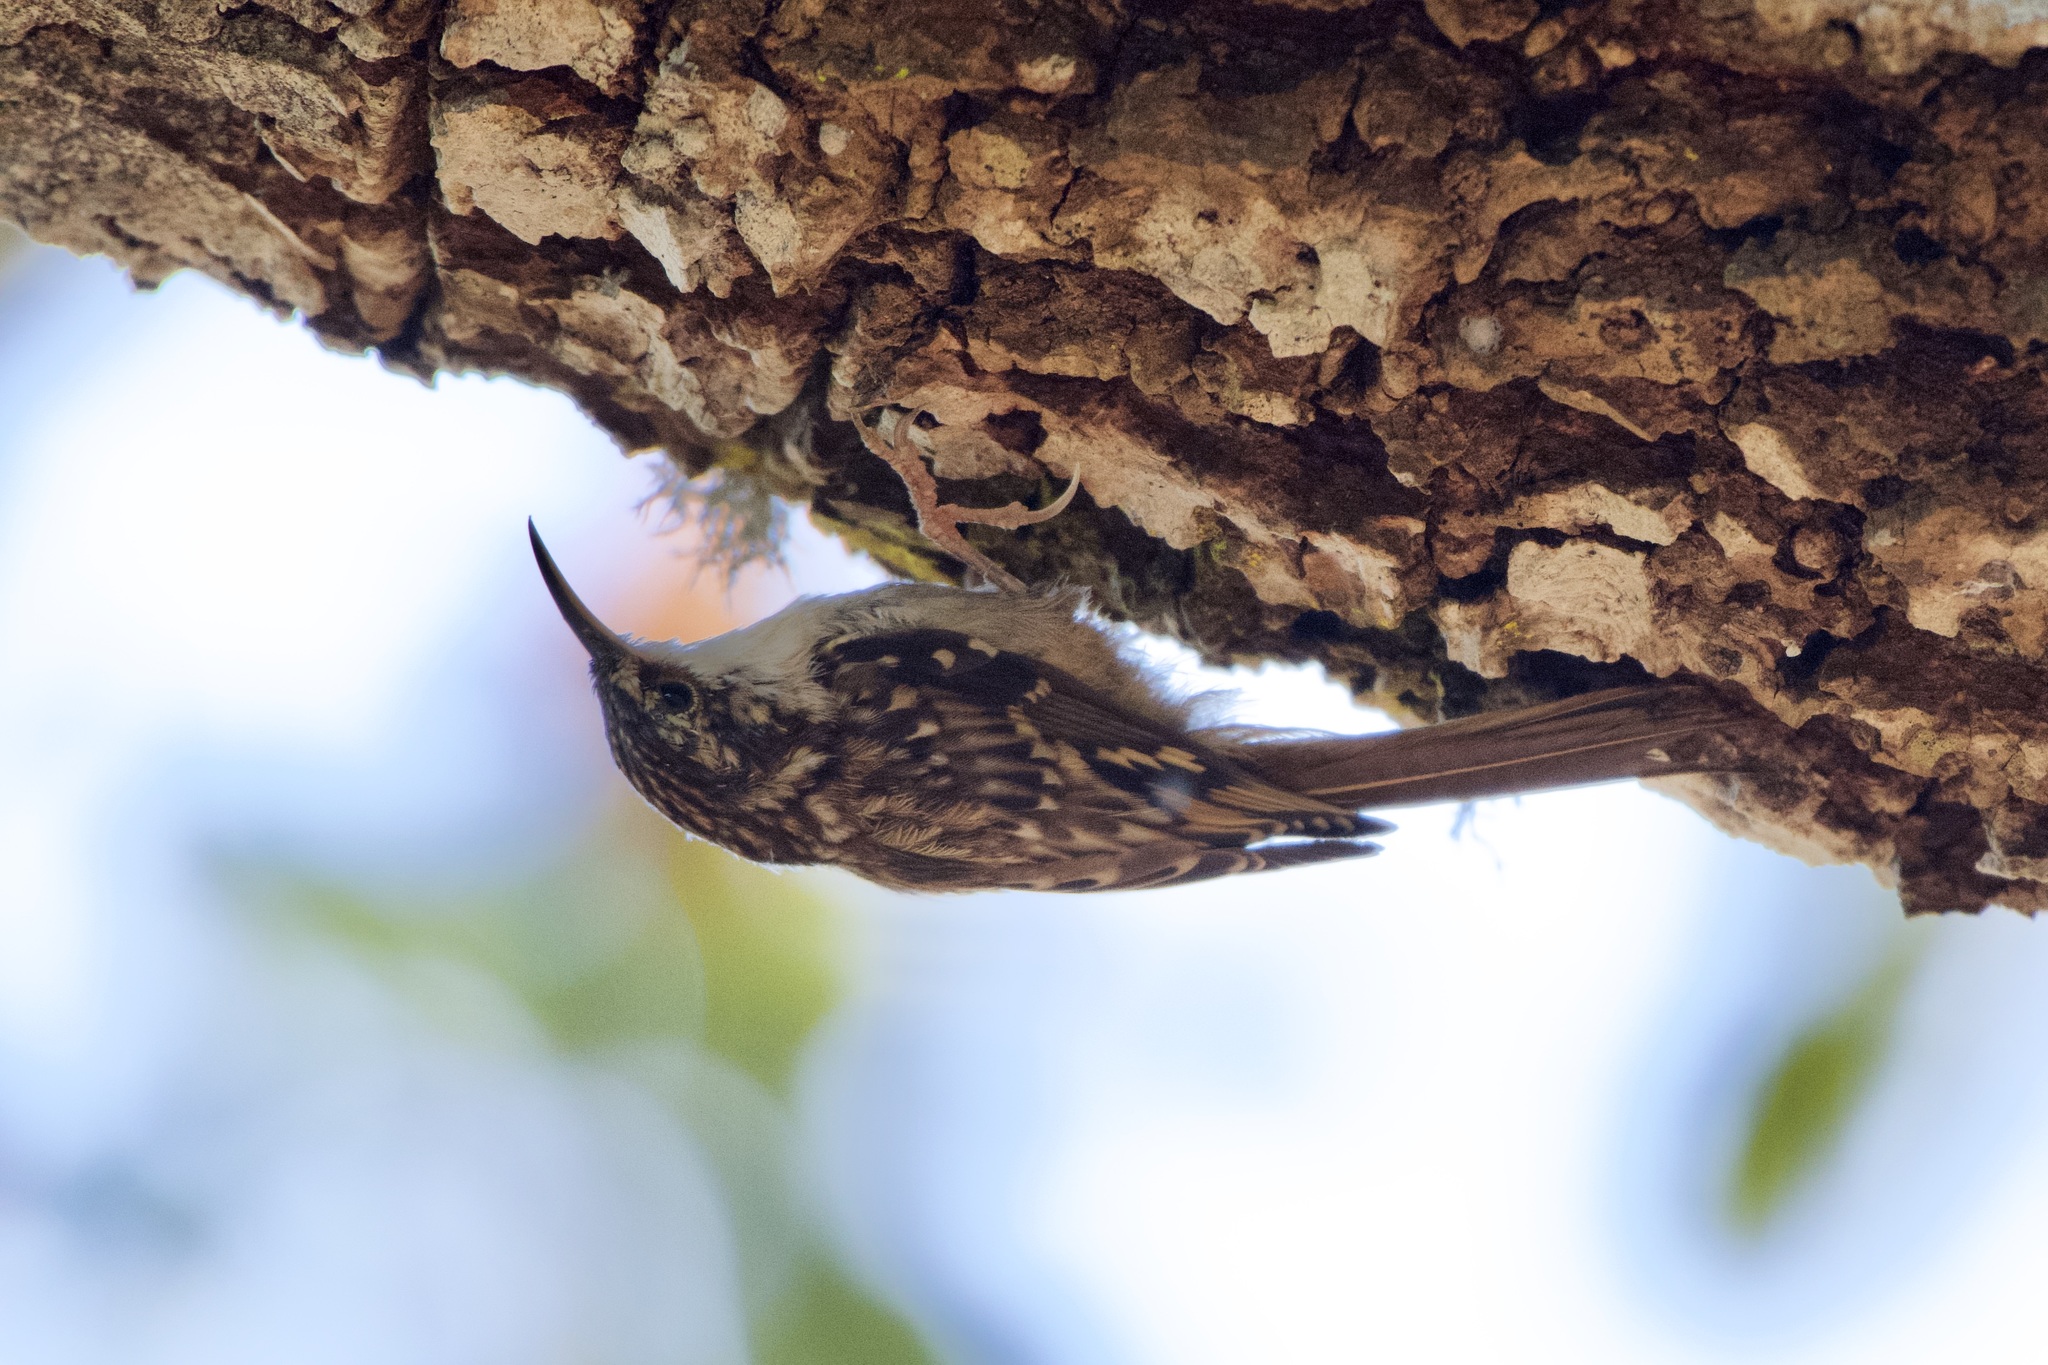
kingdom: Animalia
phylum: Chordata
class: Aves
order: Passeriformes
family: Certhiidae
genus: Certhia
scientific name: Certhia americana
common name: Brown creeper
